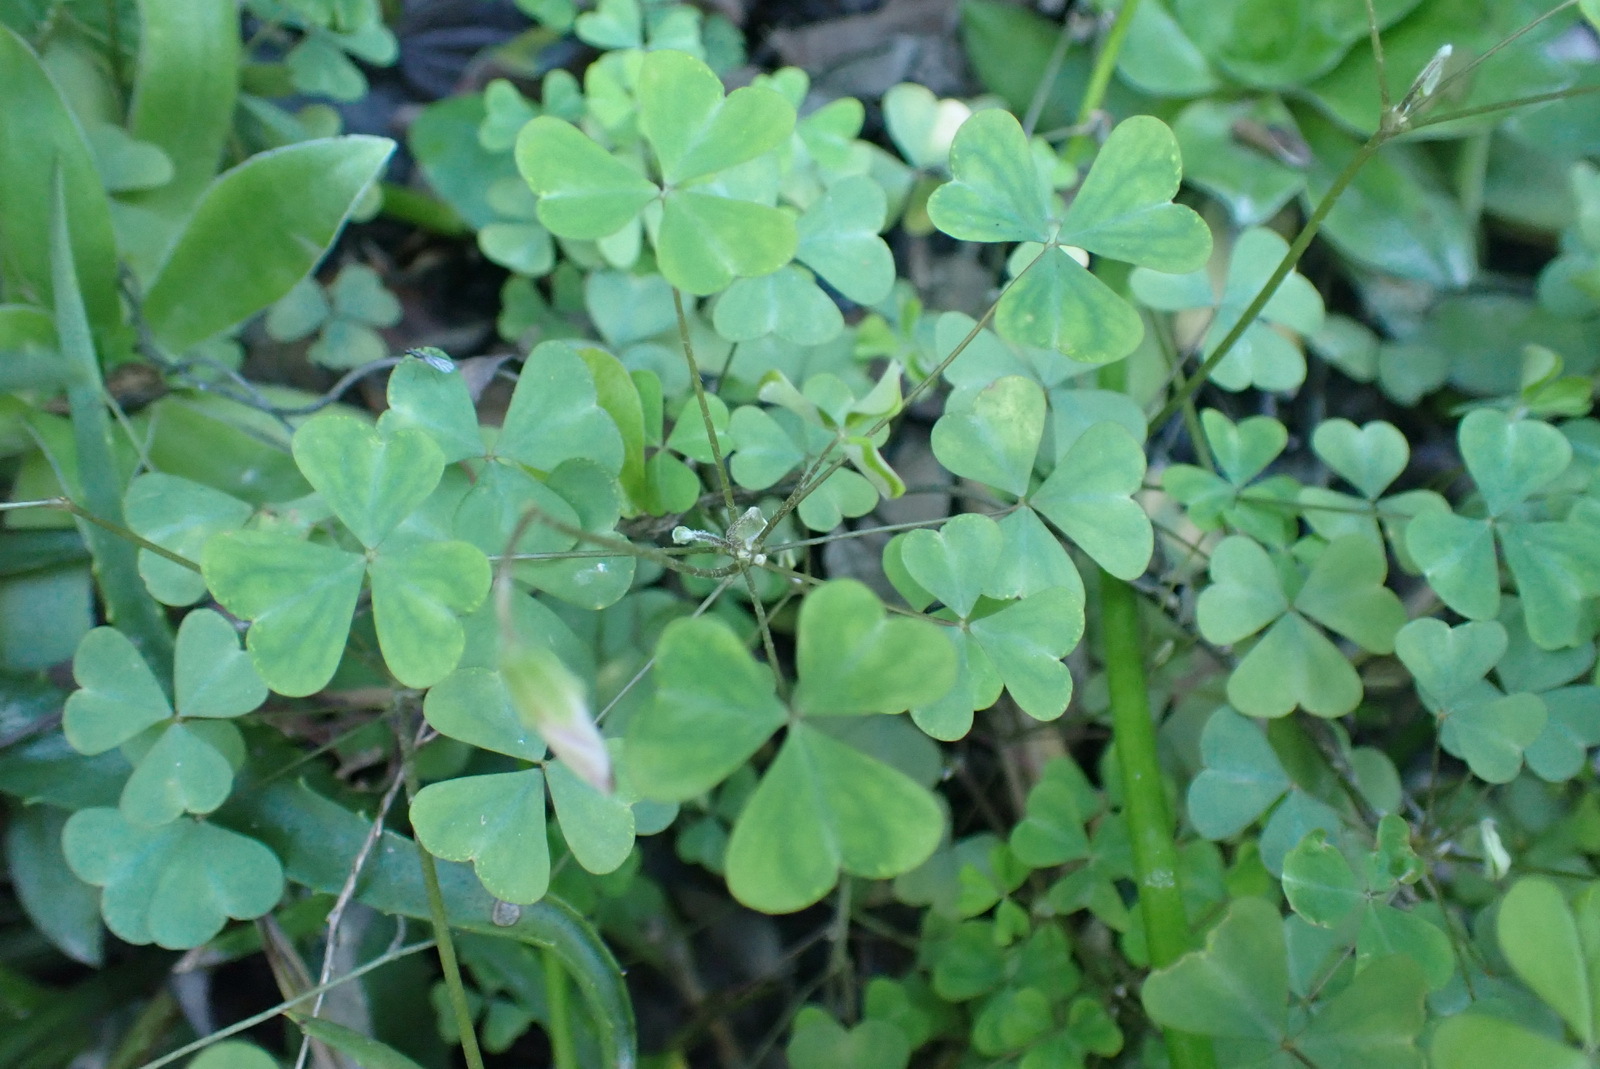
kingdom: Plantae
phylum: Tracheophyta
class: Magnoliopsida
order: Oxalidales
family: Oxalidaceae
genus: Oxalis
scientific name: Oxalis incarnata
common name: Pale pink-sorrel
